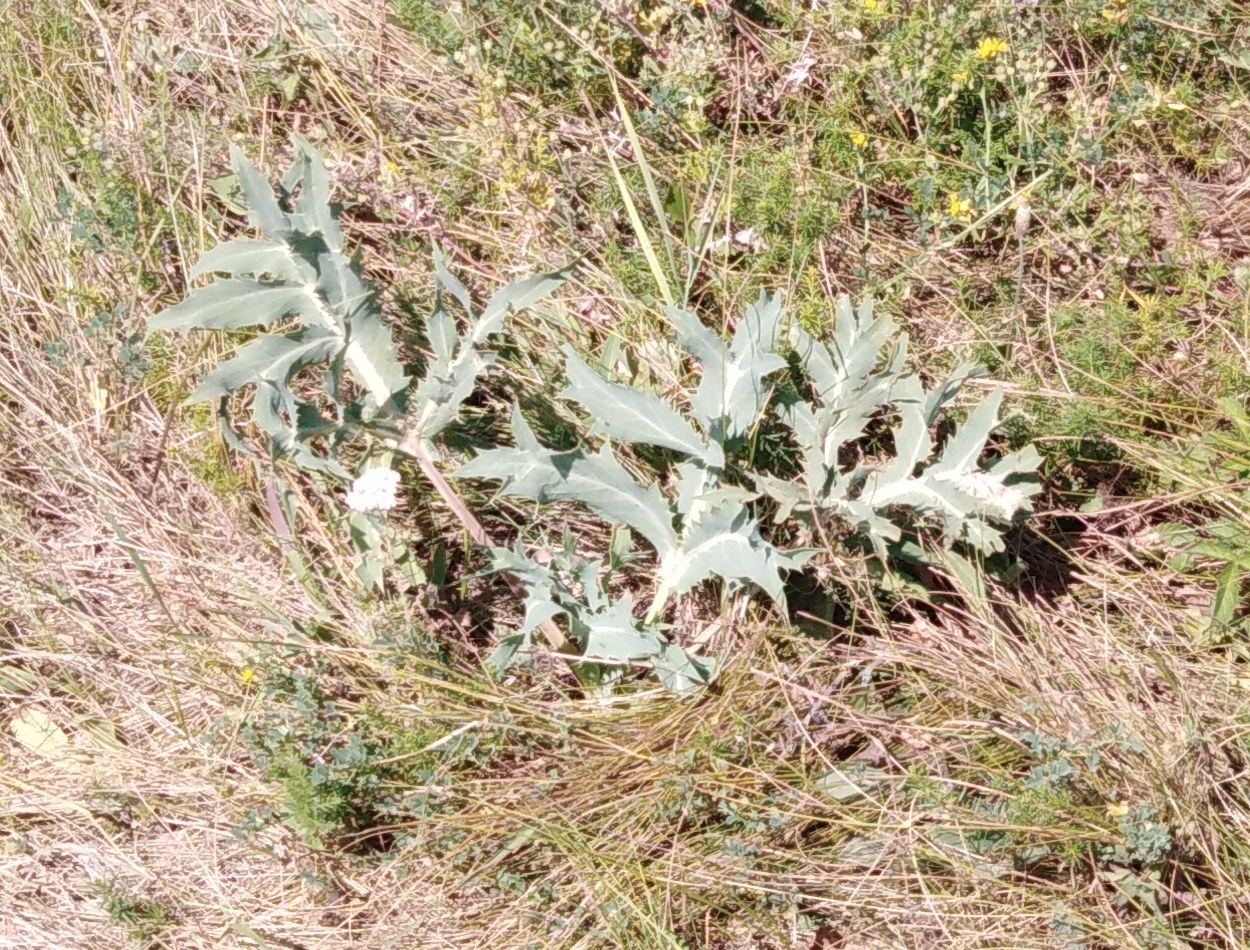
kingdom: Plantae
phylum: Tracheophyta
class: Magnoliopsida
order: Apiales
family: Apiaceae
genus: Eryngium
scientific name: Eryngium campestre
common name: Field eryngo
